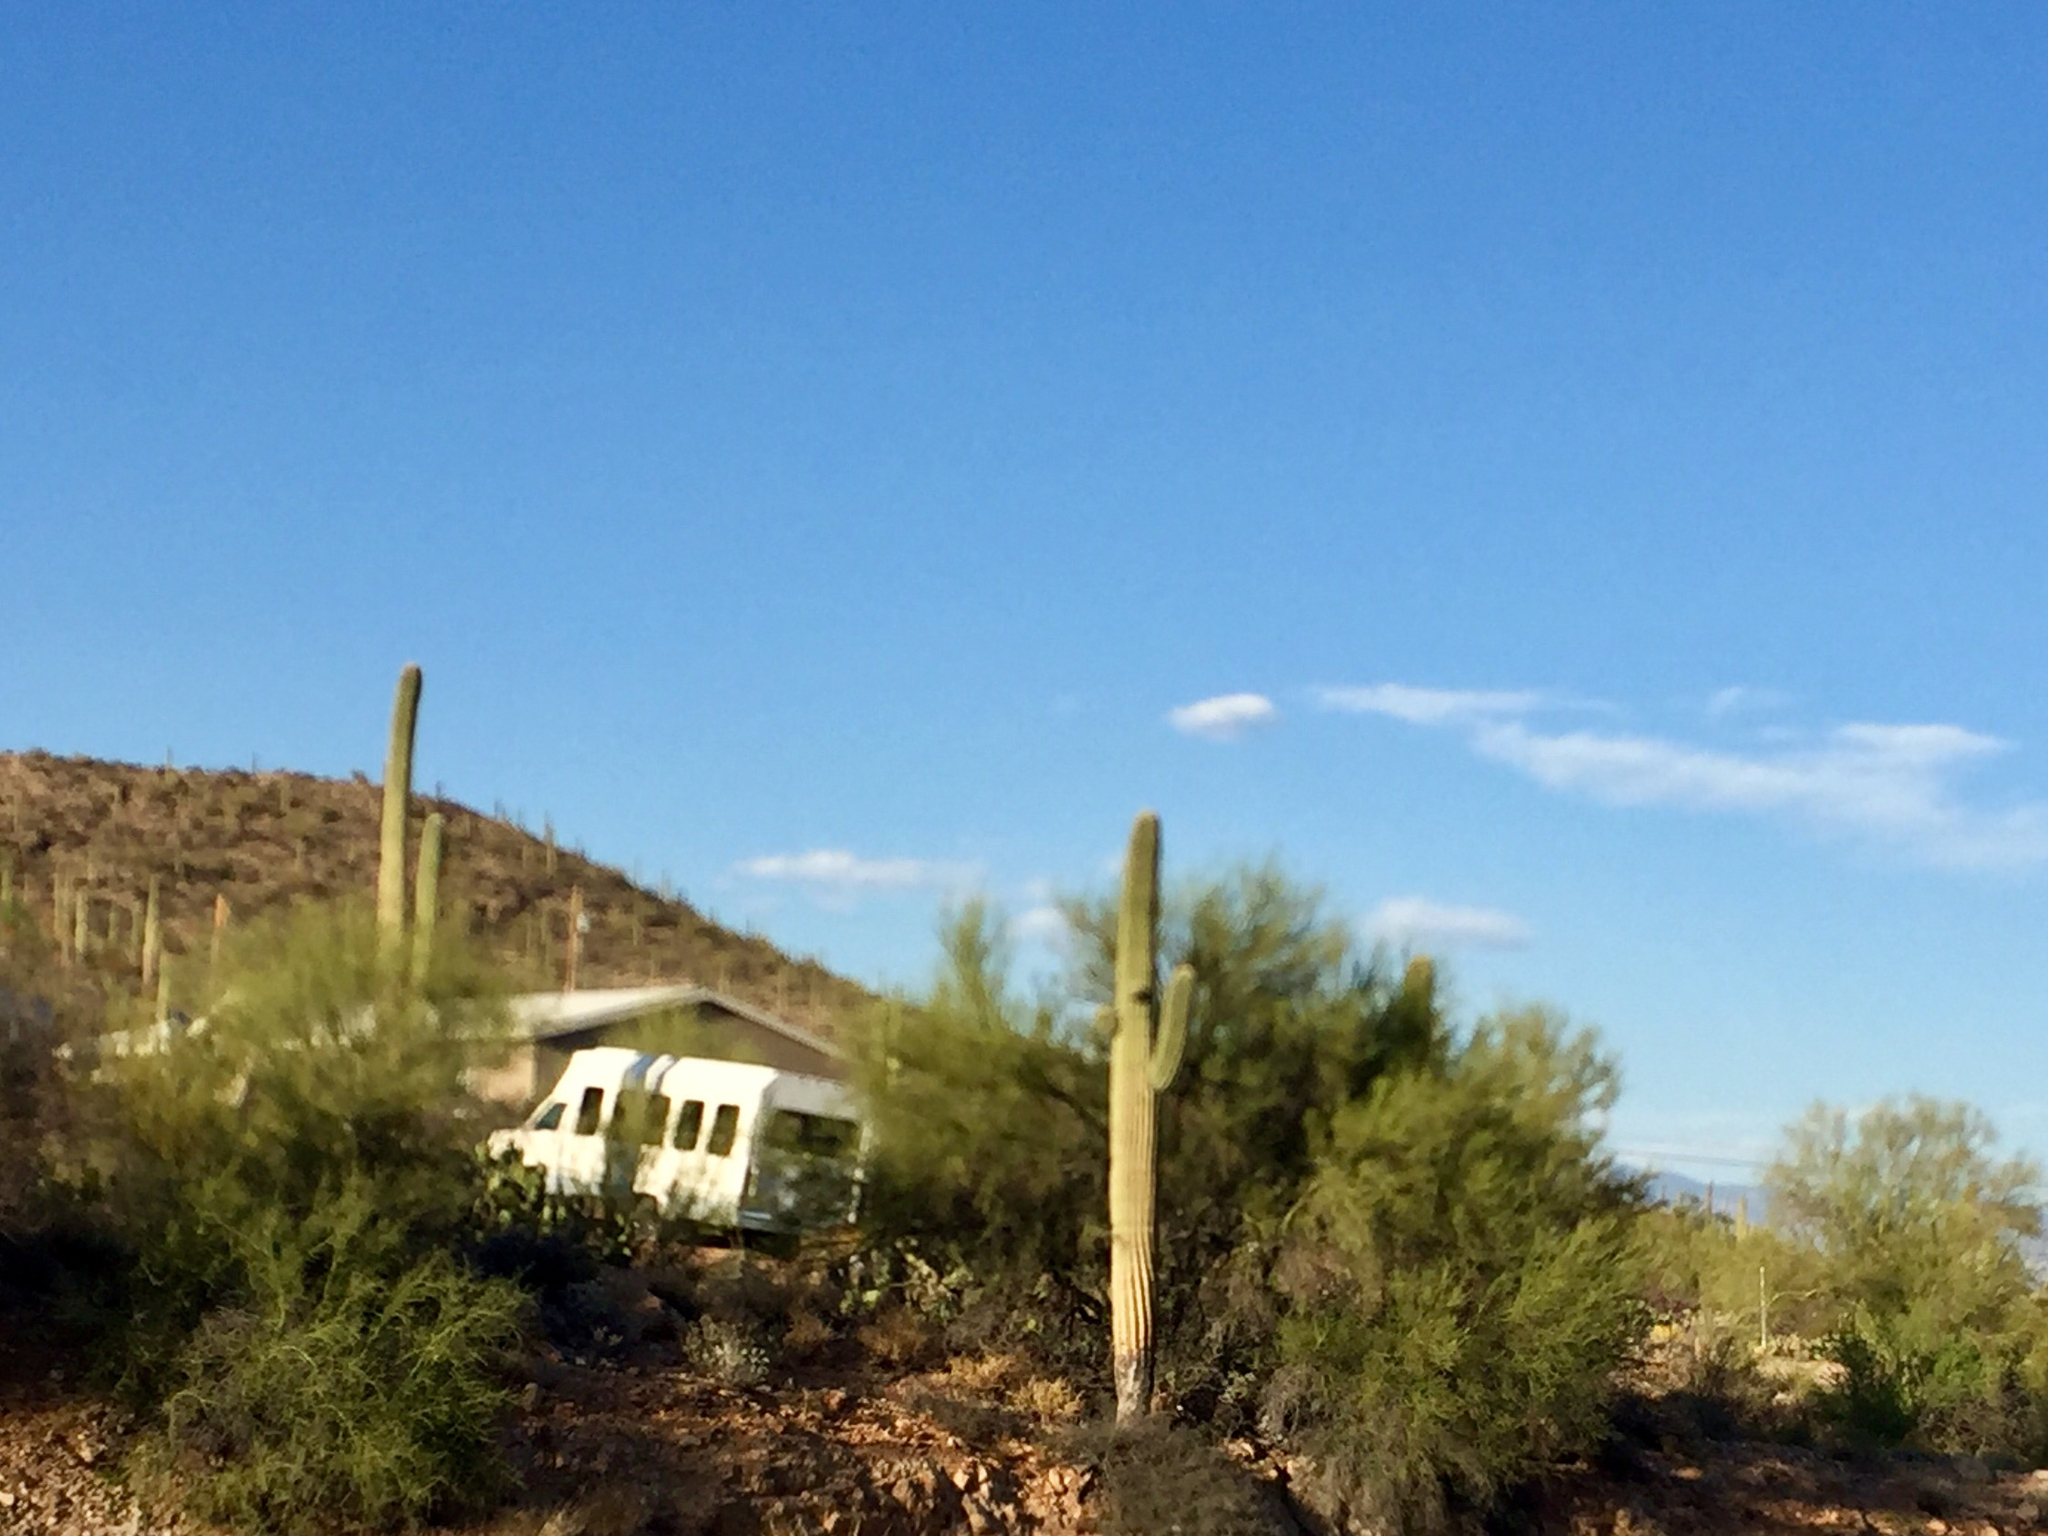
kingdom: Plantae
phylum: Tracheophyta
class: Magnoliopsida
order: Caryophyllales
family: Cactaceae
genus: Carnegiea
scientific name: Carnegiea gigantea
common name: Saguaro
